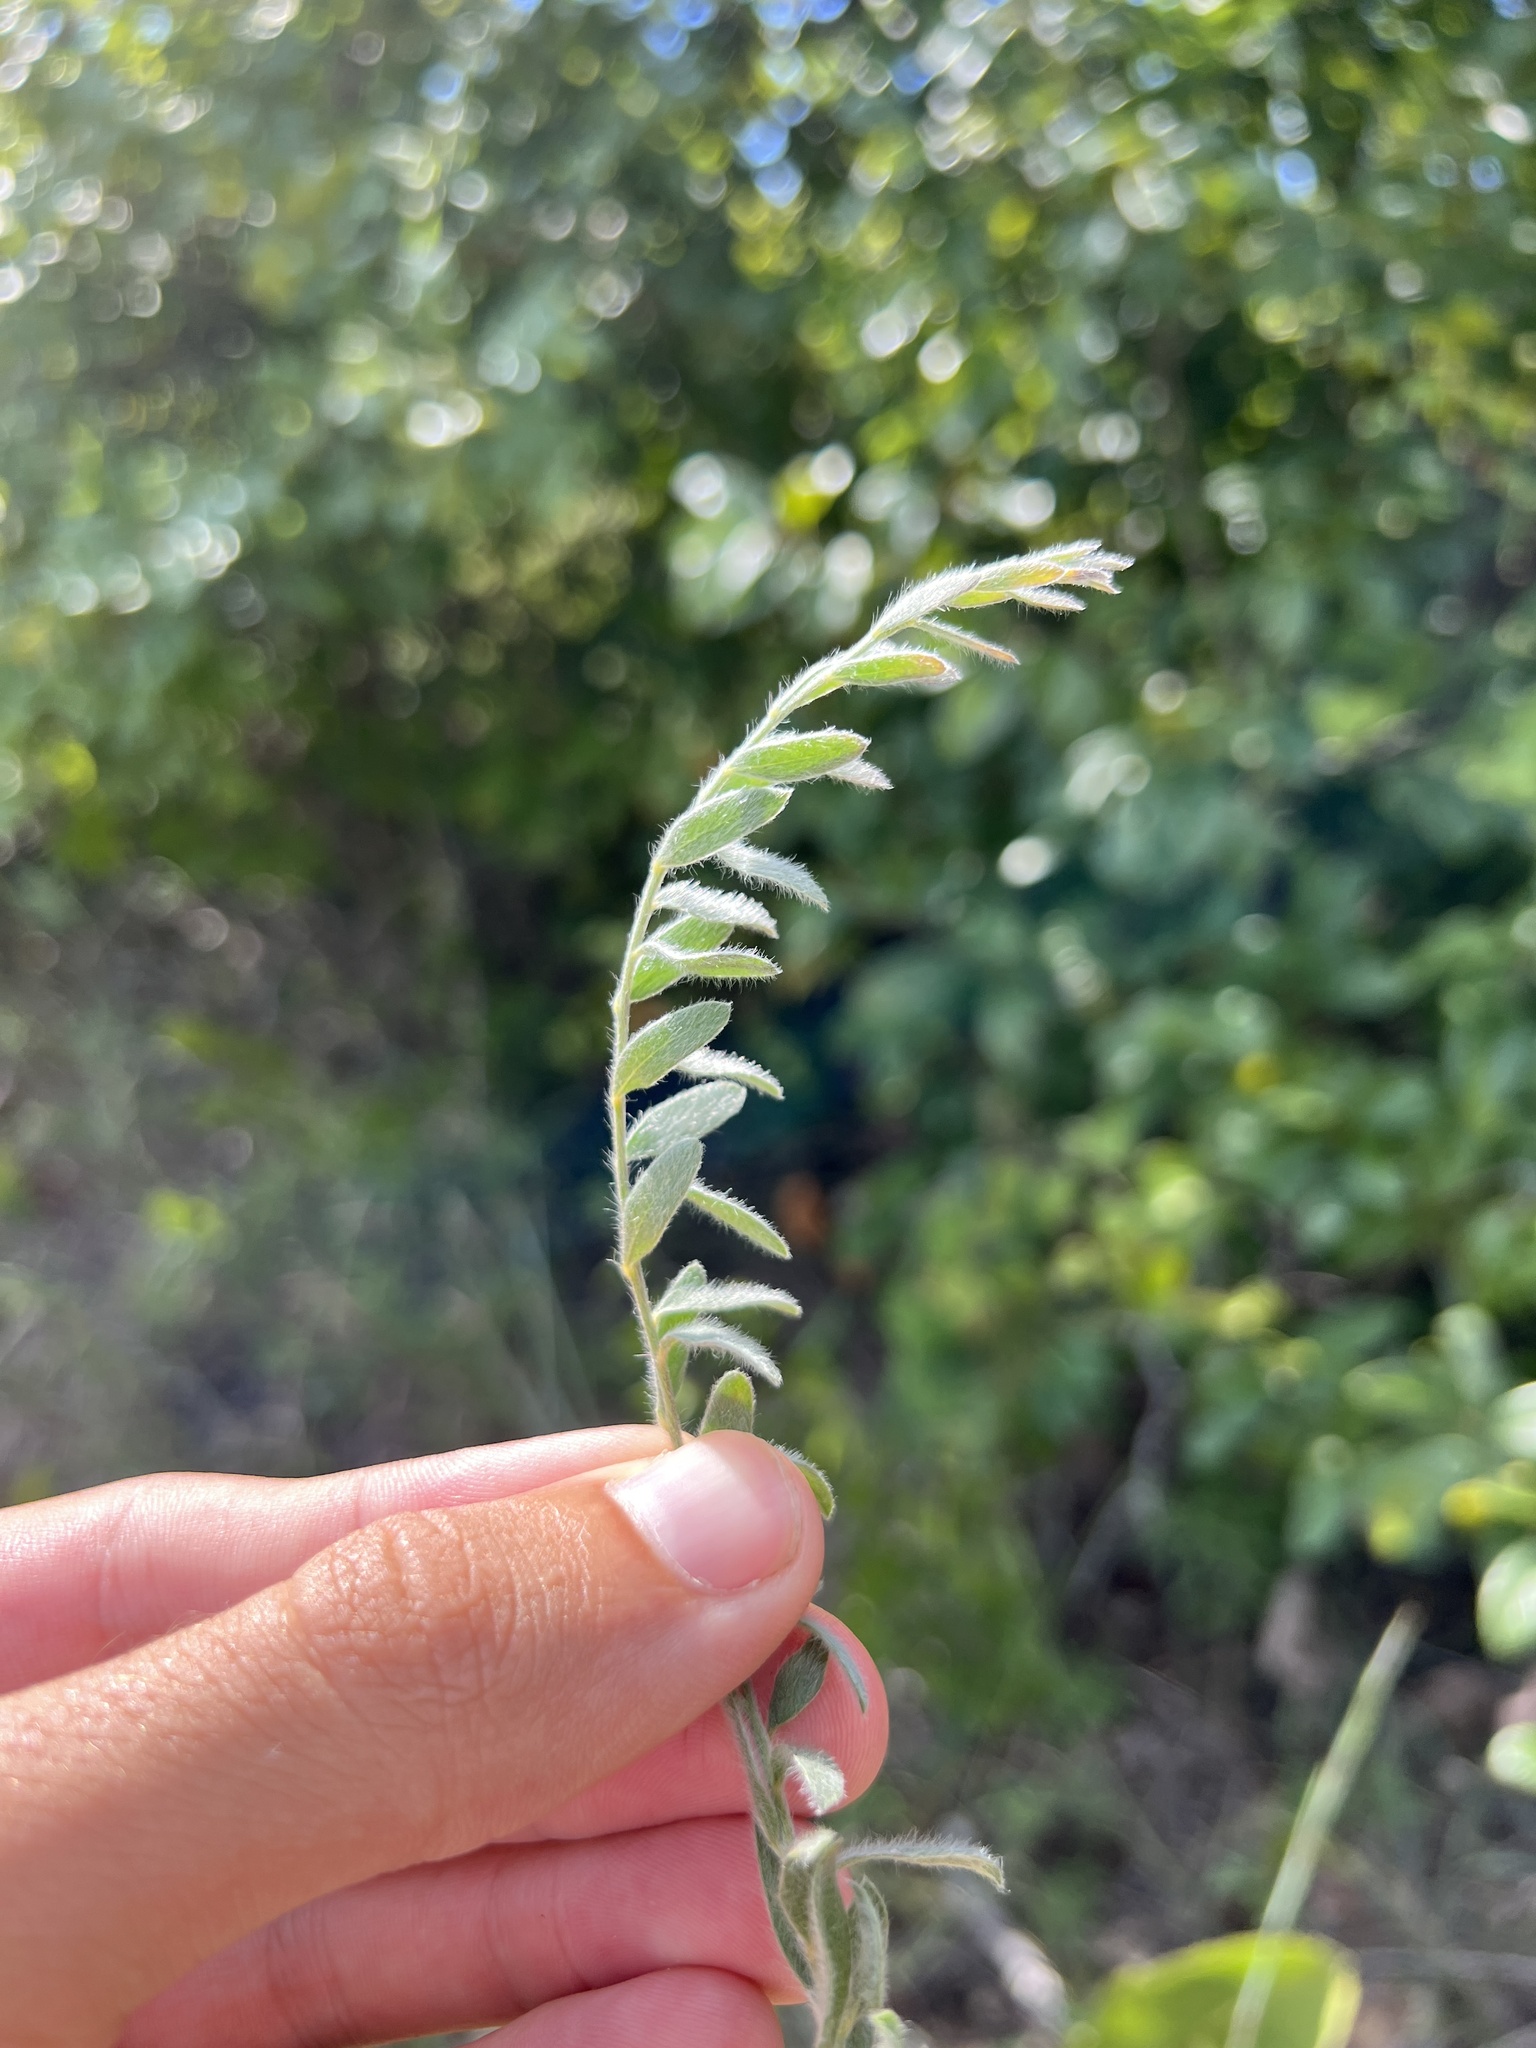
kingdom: Plantae
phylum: Tracheophyta
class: Magnoliopsida
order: Solanales
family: Convolvulaceae
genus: Evolvulus
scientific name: Evolvulus nuttallianus
